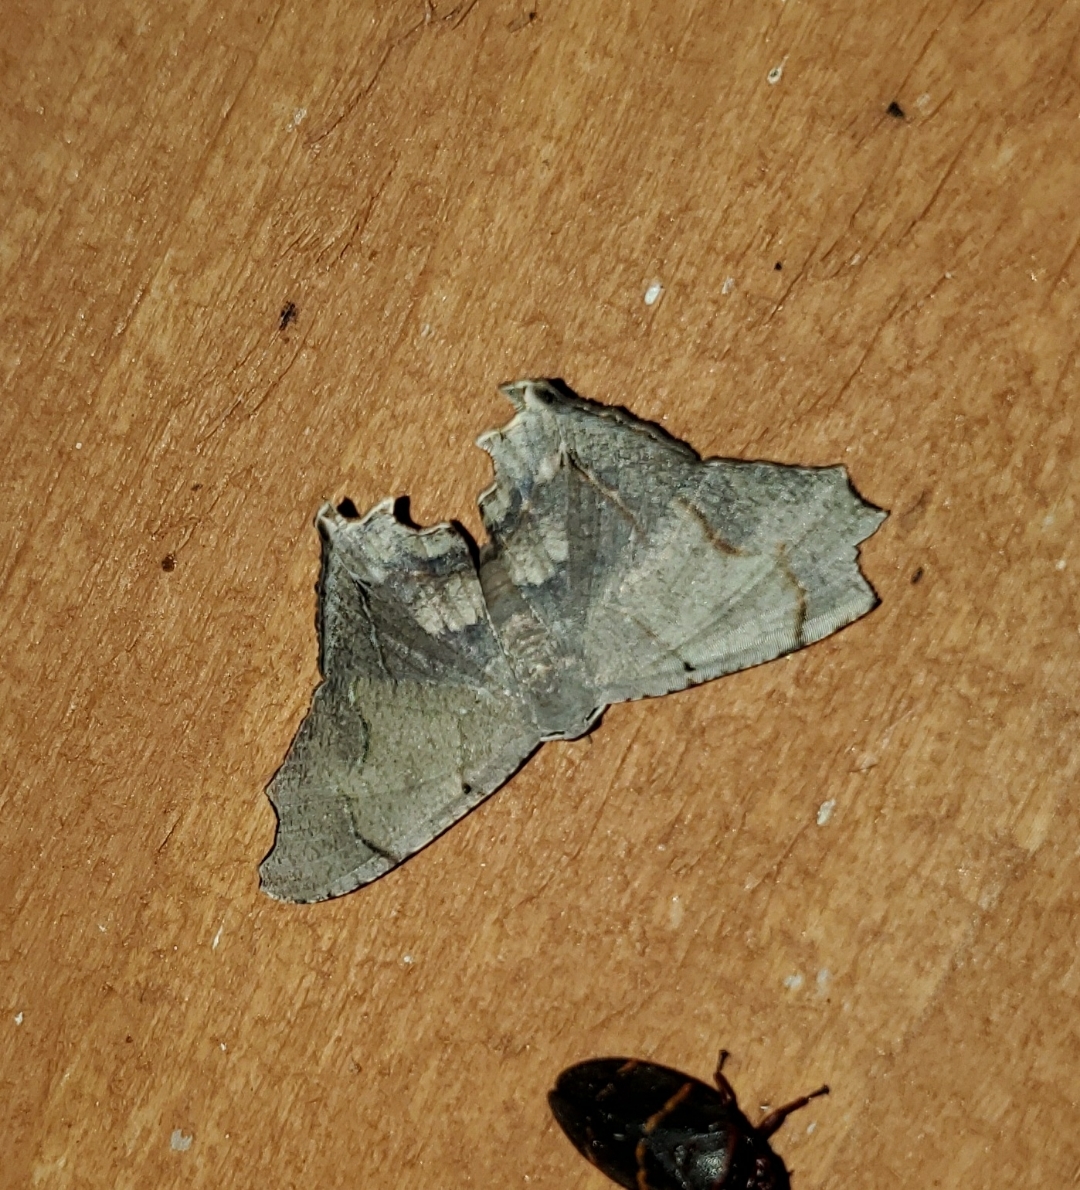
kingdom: Animalia
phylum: Arthropoda
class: Insecta
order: Lepidoptera
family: Uraniidae
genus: Trotorhombia
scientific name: Trotorhombia metachromata
